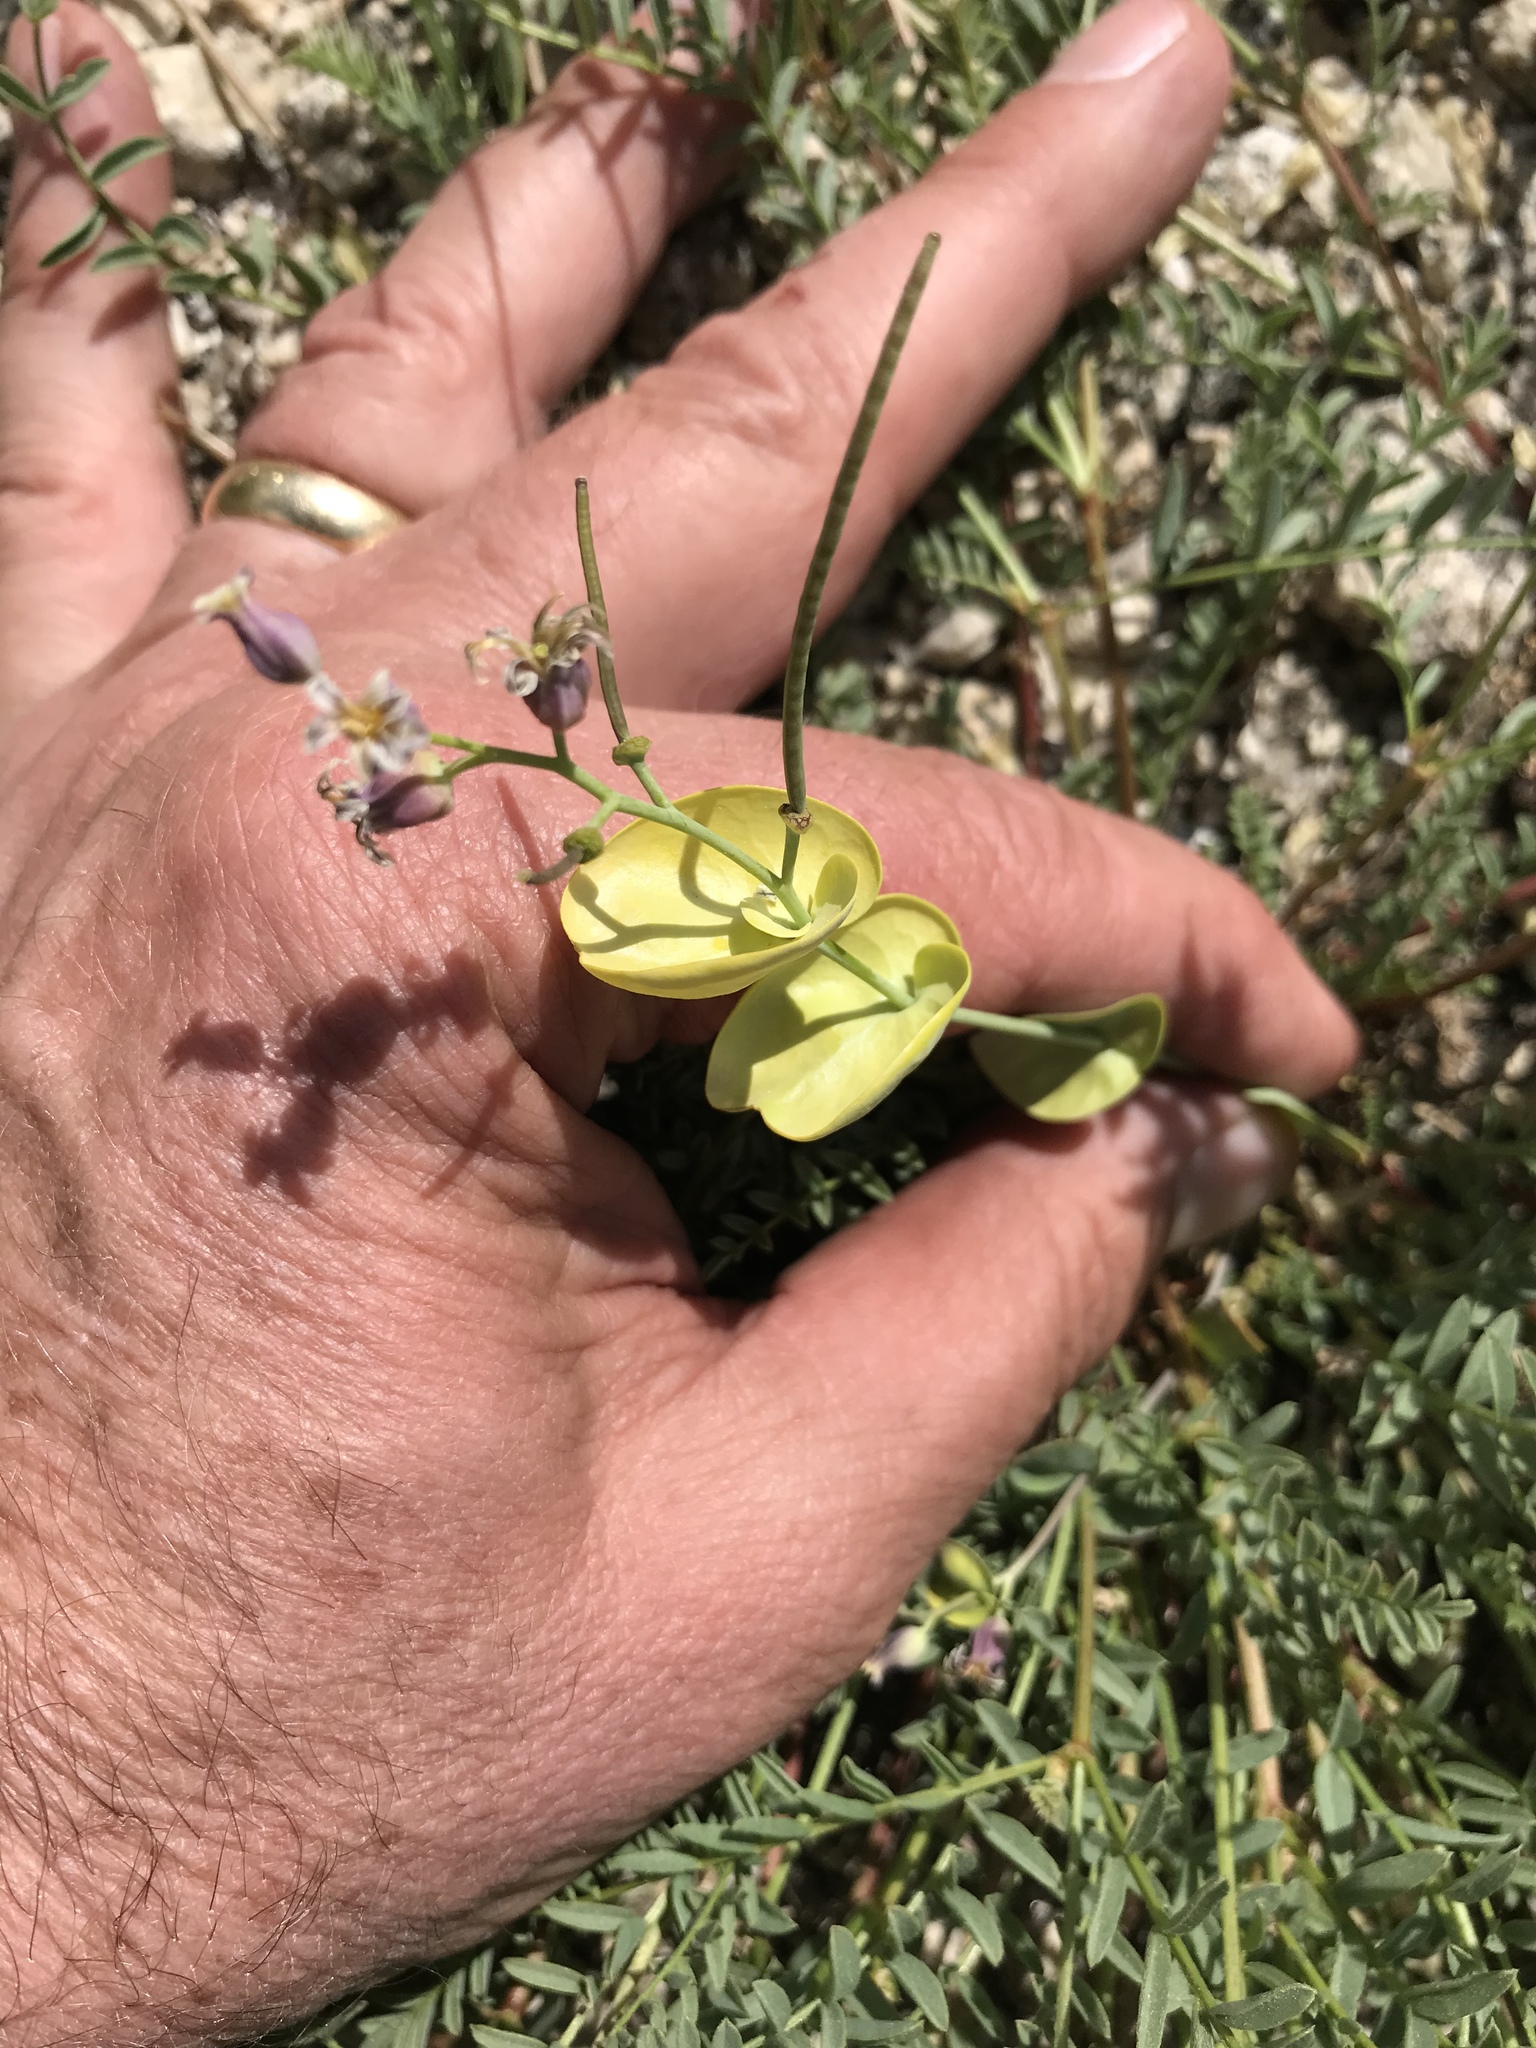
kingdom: Plantae
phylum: Tracheophyta
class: Magnoliopsida
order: Brassicales
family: Brassicaceae
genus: Streptanthus
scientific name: Streptanthus tortuosus
